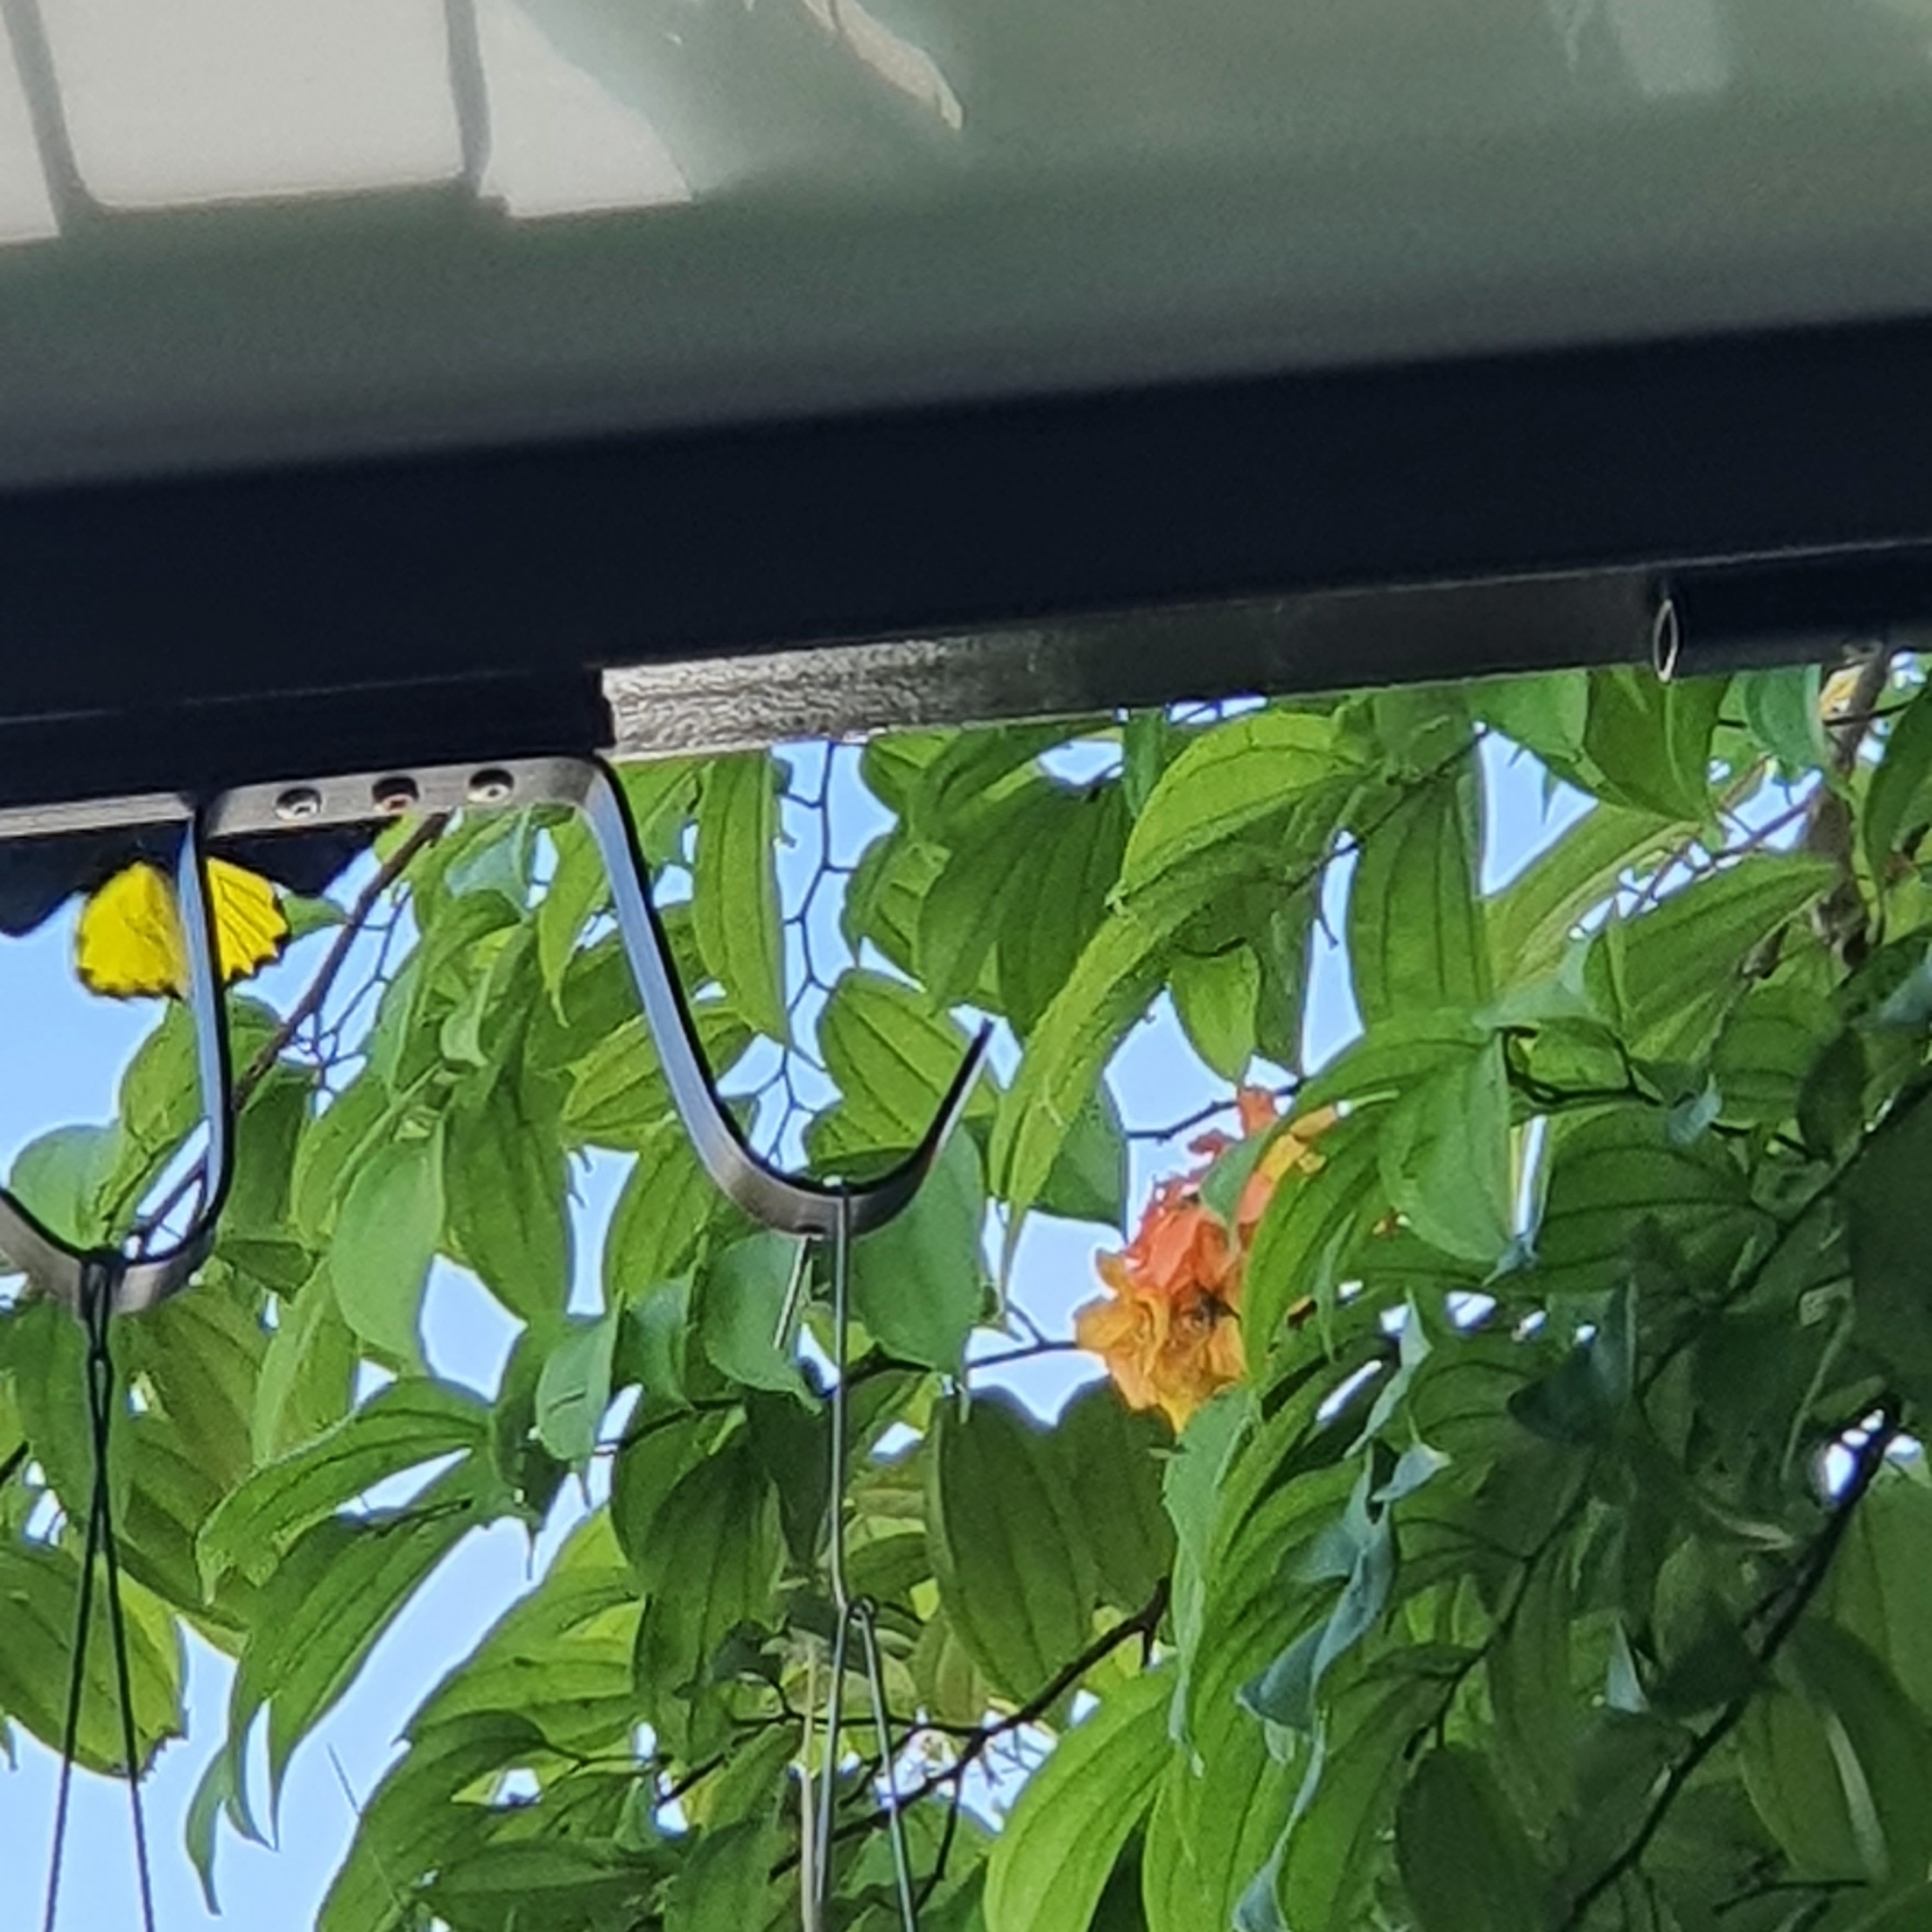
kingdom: Animalia
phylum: Arthropoda
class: Insecta
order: Lepidoptera
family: Papilionidae
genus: Troides
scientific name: Troides helena
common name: Common birdwing
